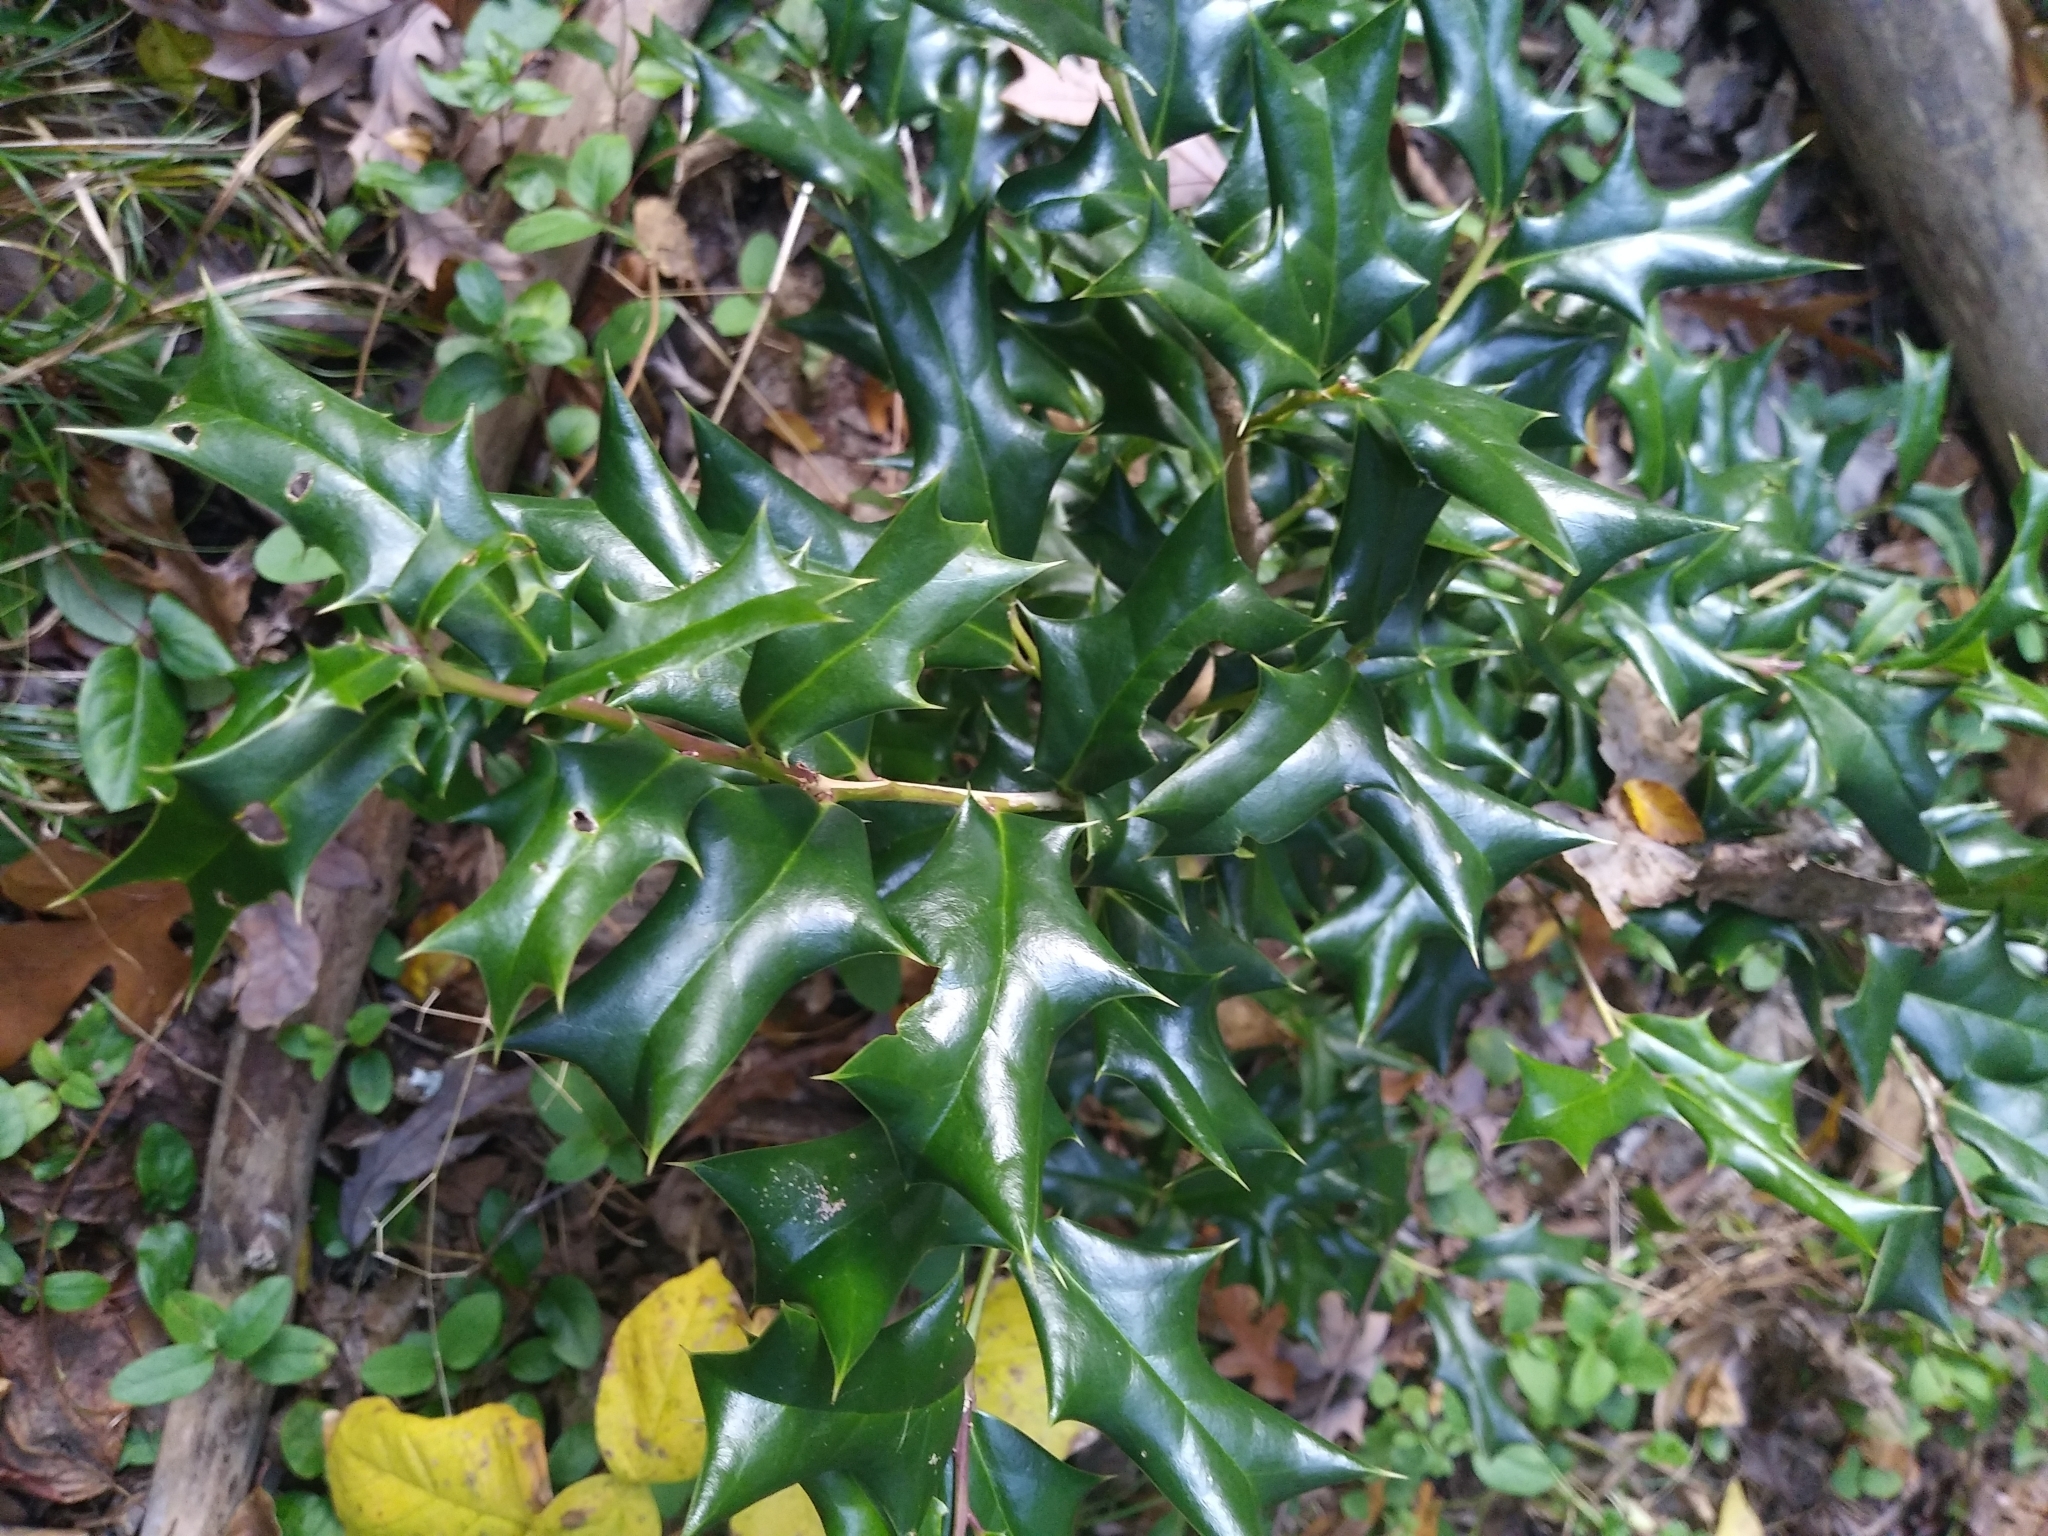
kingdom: Plantae
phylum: Tracheophyta
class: Magnoliopsida
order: Aquifoliales
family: Aquifoliaceae
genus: Ilex
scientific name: Ilex cornuta
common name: Chinese holly
